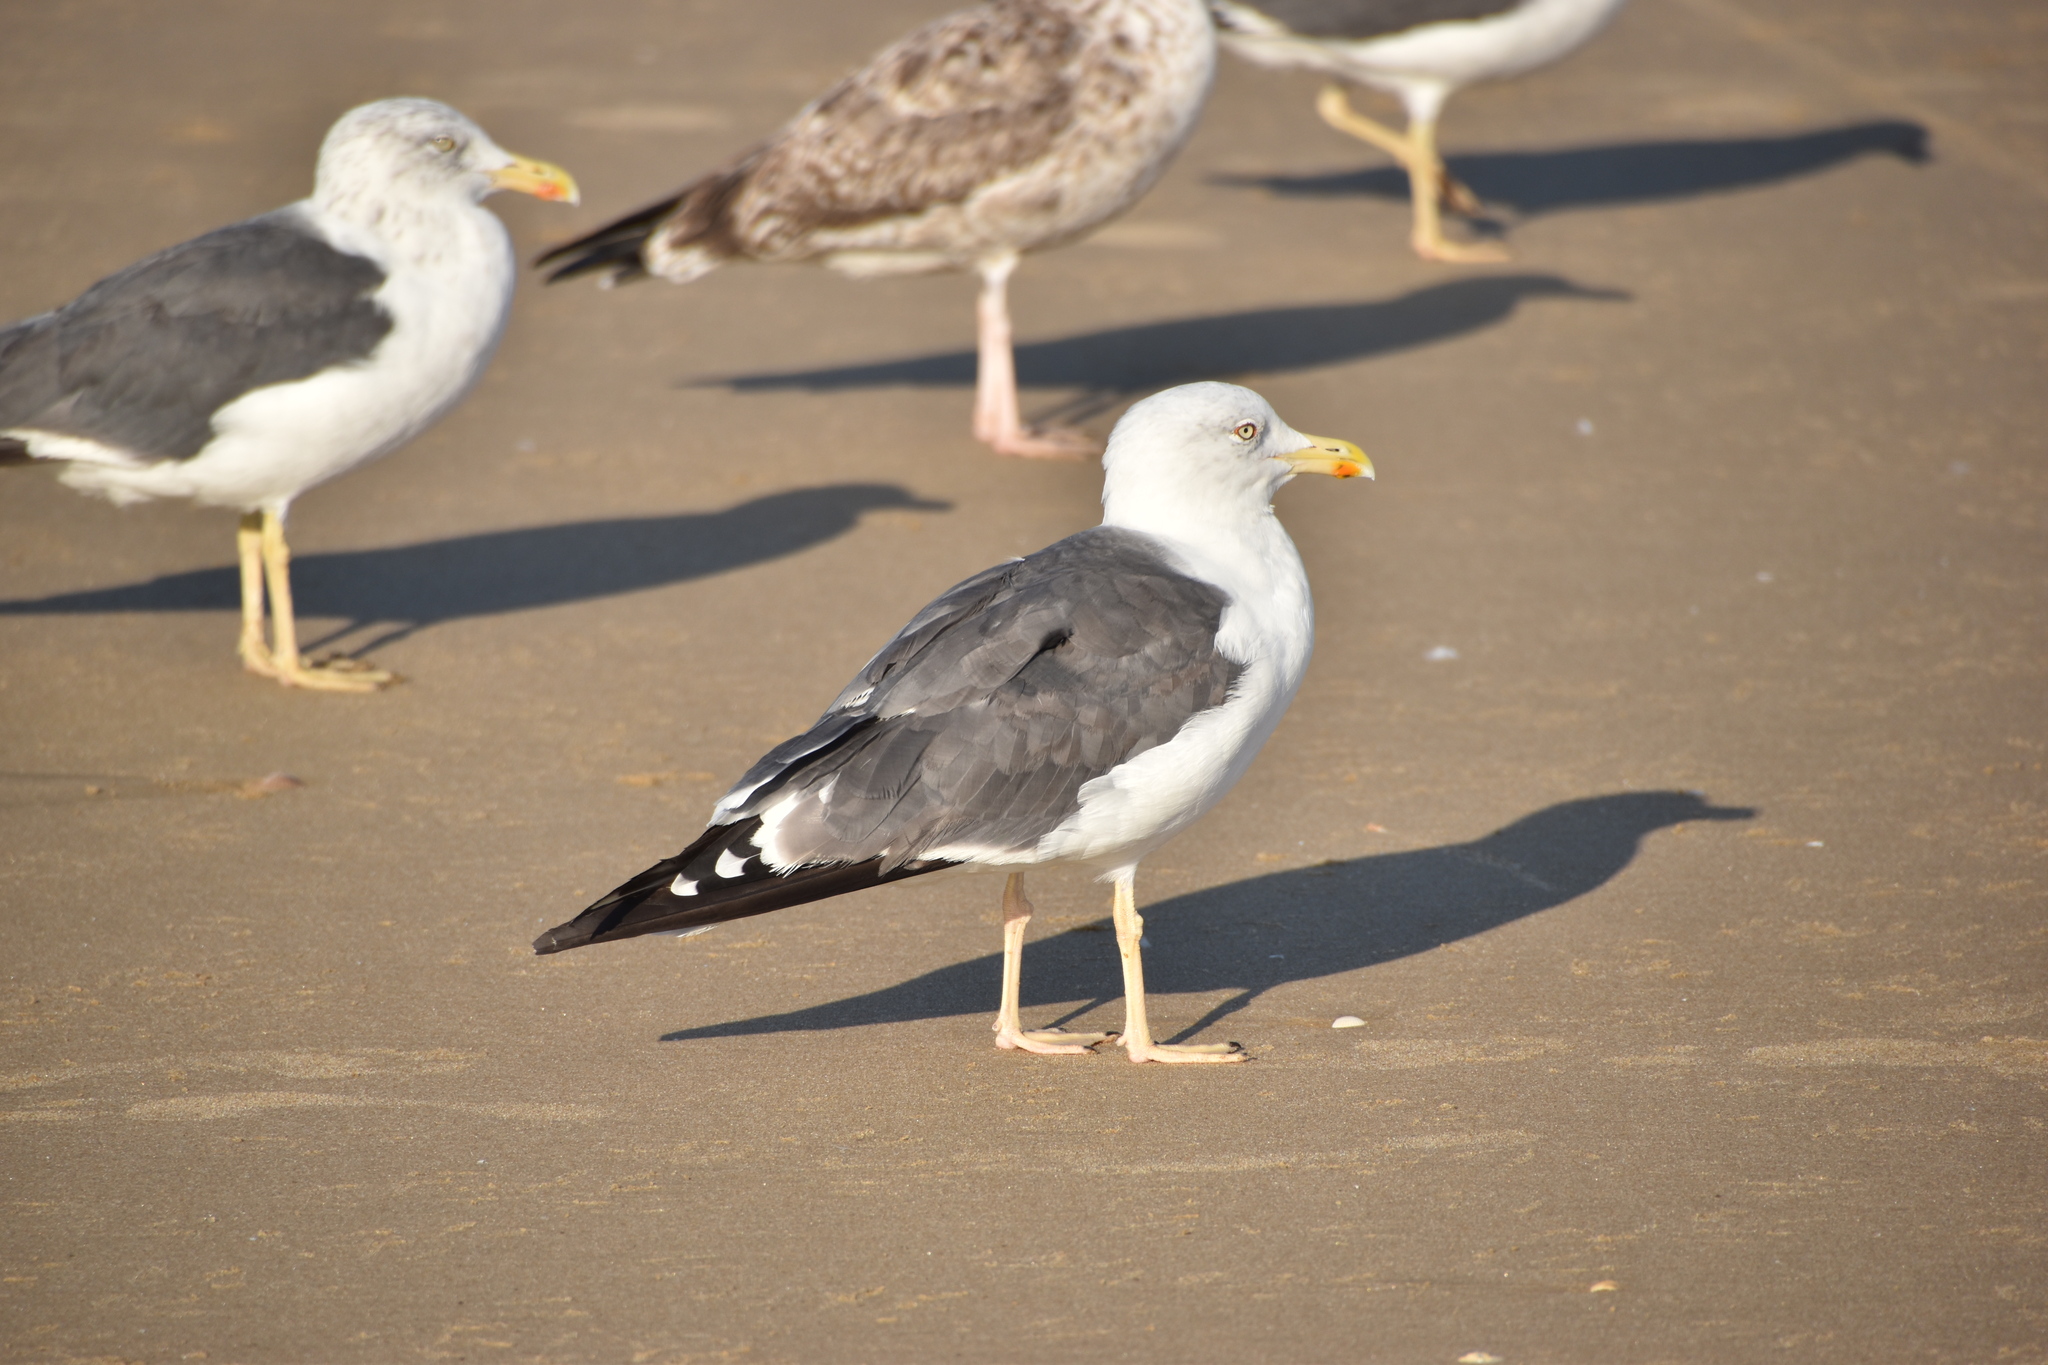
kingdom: Animalia
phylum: Chordata
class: Aves
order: Charadriiformes
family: Laridae
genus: Larus
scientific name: Larus fuscus
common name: Lesser black-backed gull
